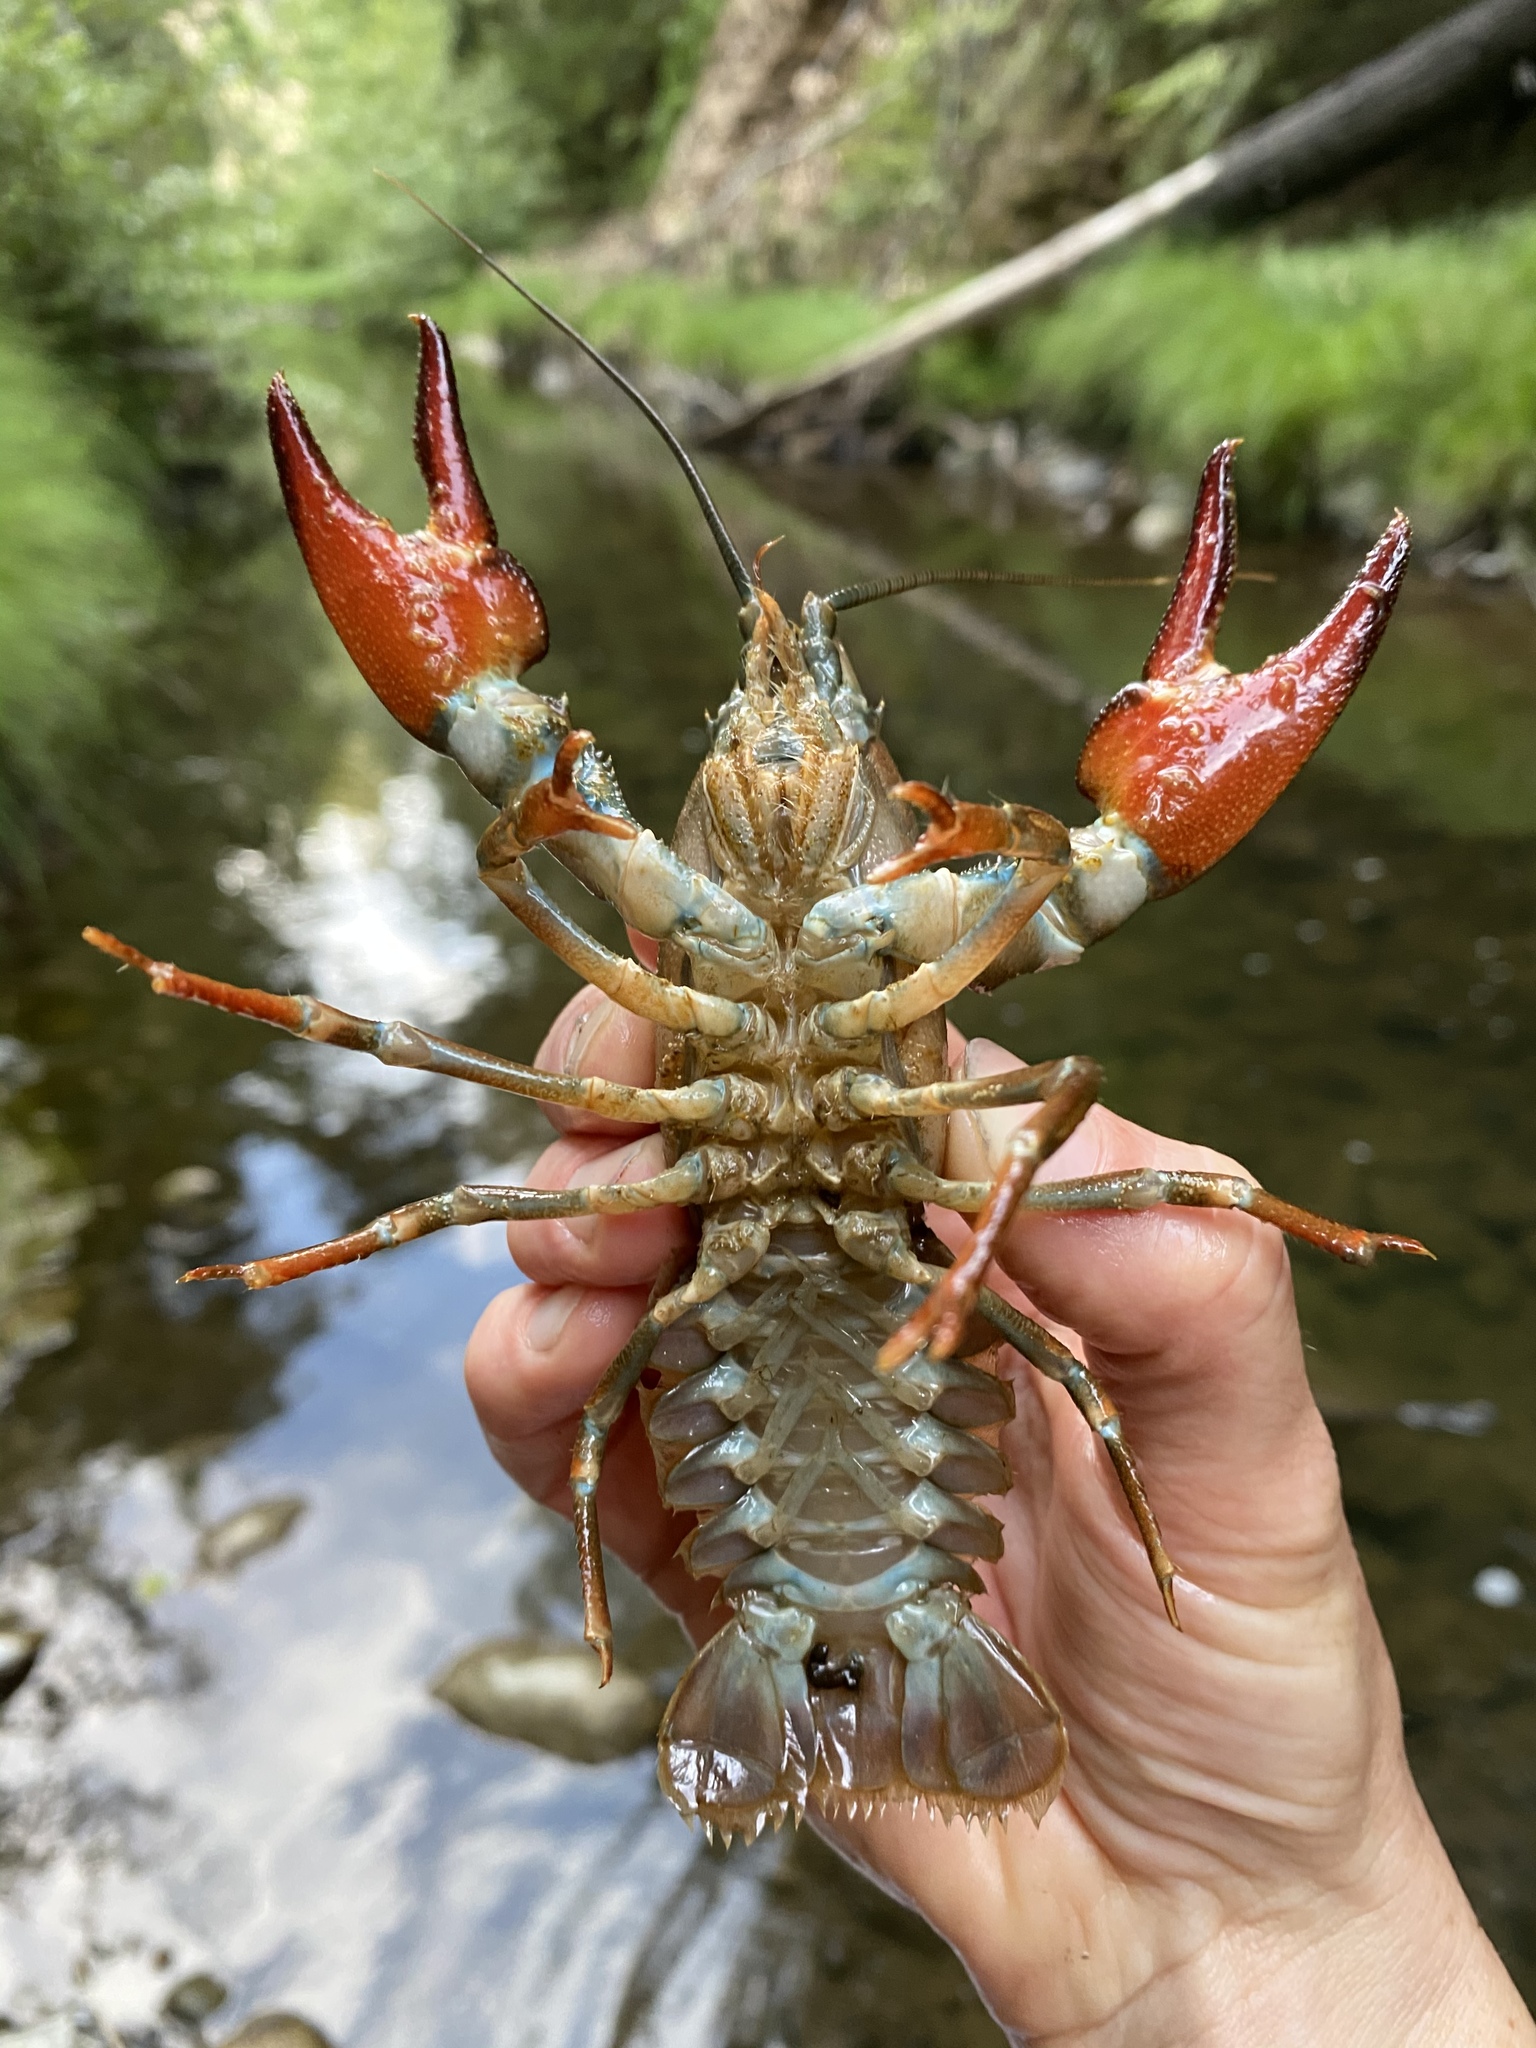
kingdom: Animalia
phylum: Arthropoda
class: Malacostraca
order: Decapoda
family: Astacidae
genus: Pacifastacus
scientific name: Pacifastacus leniusculus
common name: Signal crayfish
